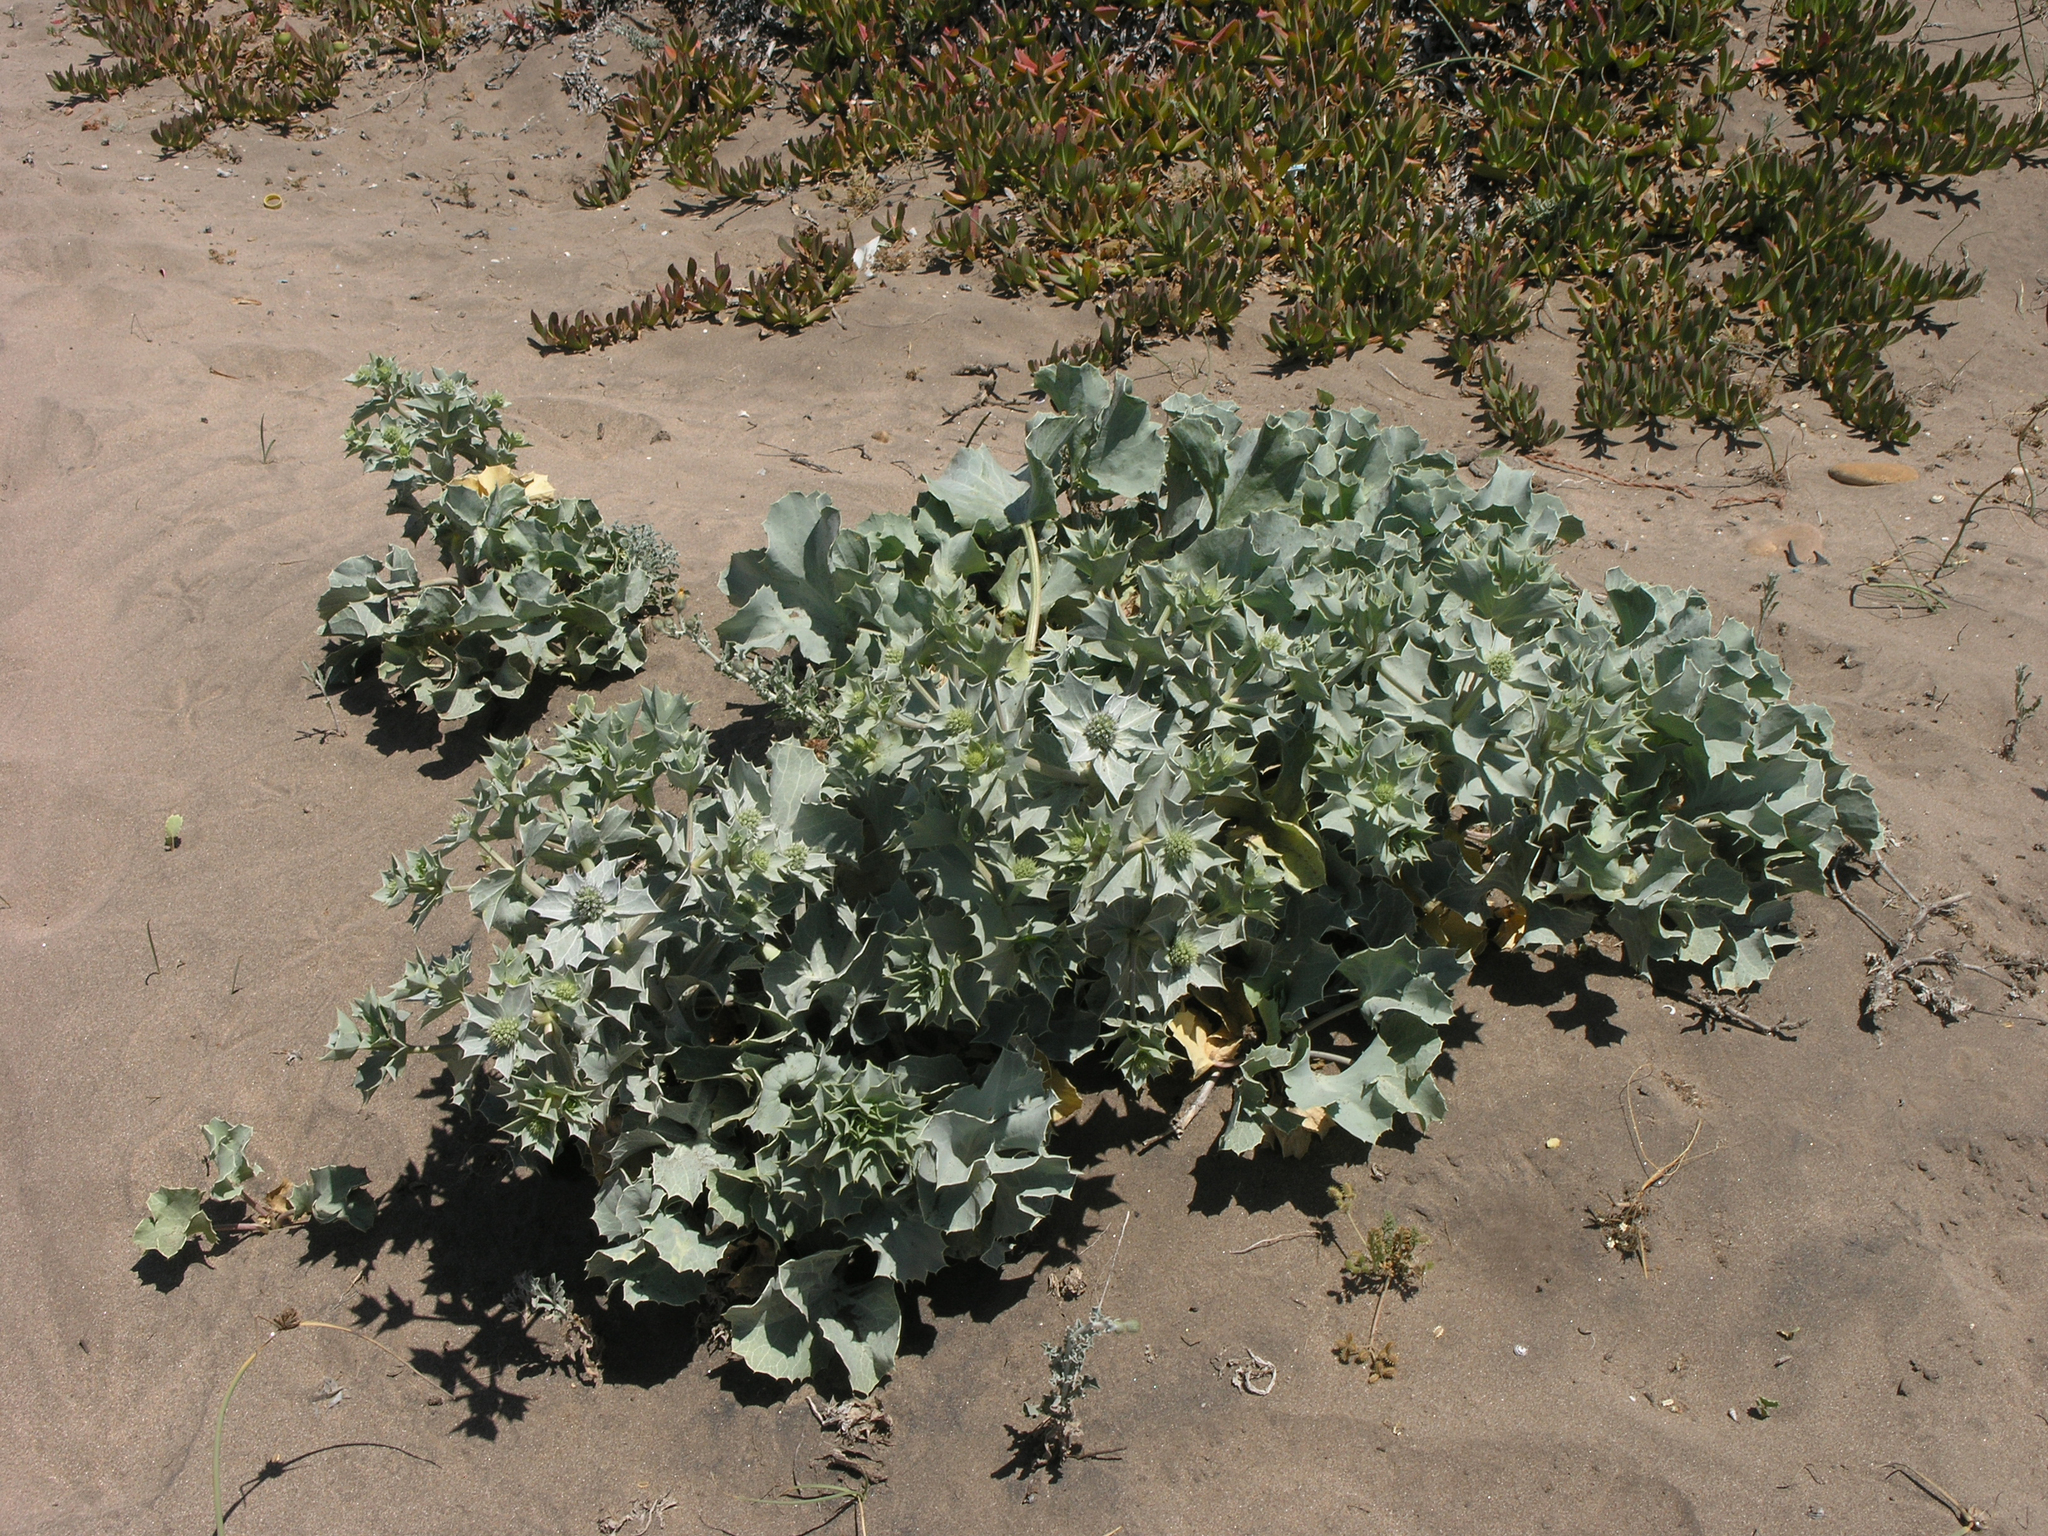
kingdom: Plantae
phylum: Tracheophyta
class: Magnoliopsida
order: Apiales
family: Apiaceae
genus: Eryngium
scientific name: Eryngium maritimum
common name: Sea-holly
